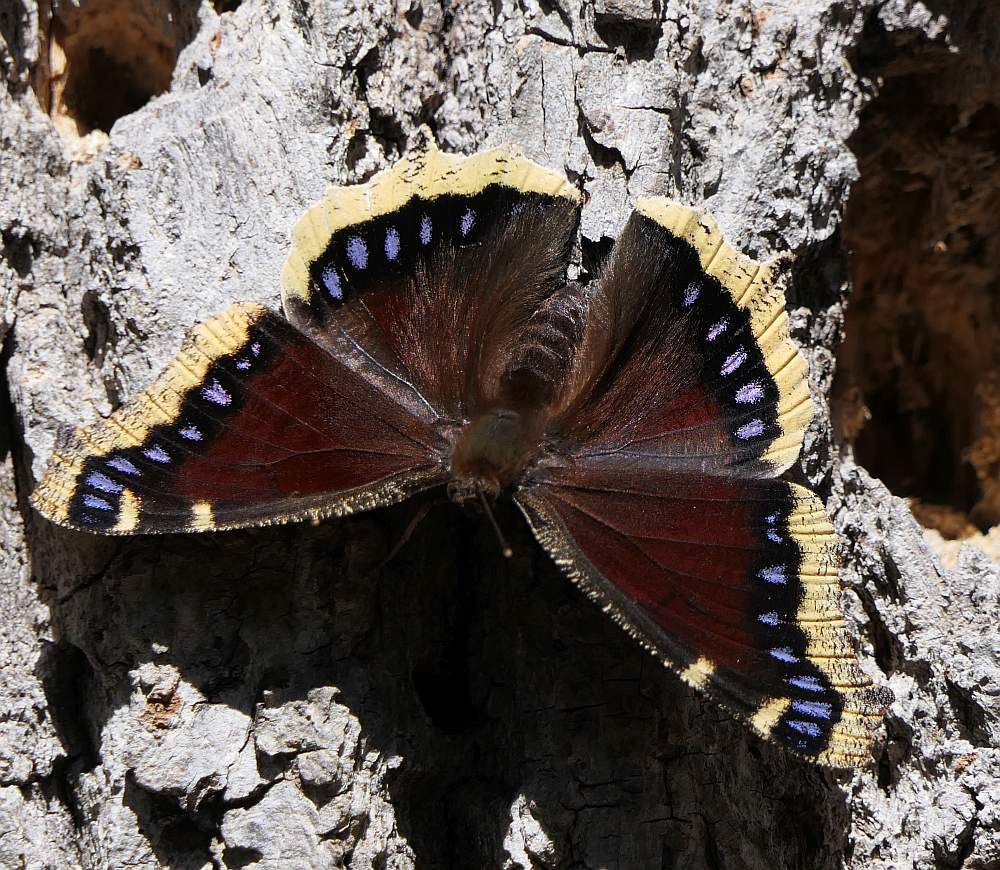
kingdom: Animalia
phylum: Arthropoda
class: Insecta
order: Lepidoptera
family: Nymphalidae
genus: Nymphalis
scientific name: Nymphalis antiopa
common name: Camberwell beauty
